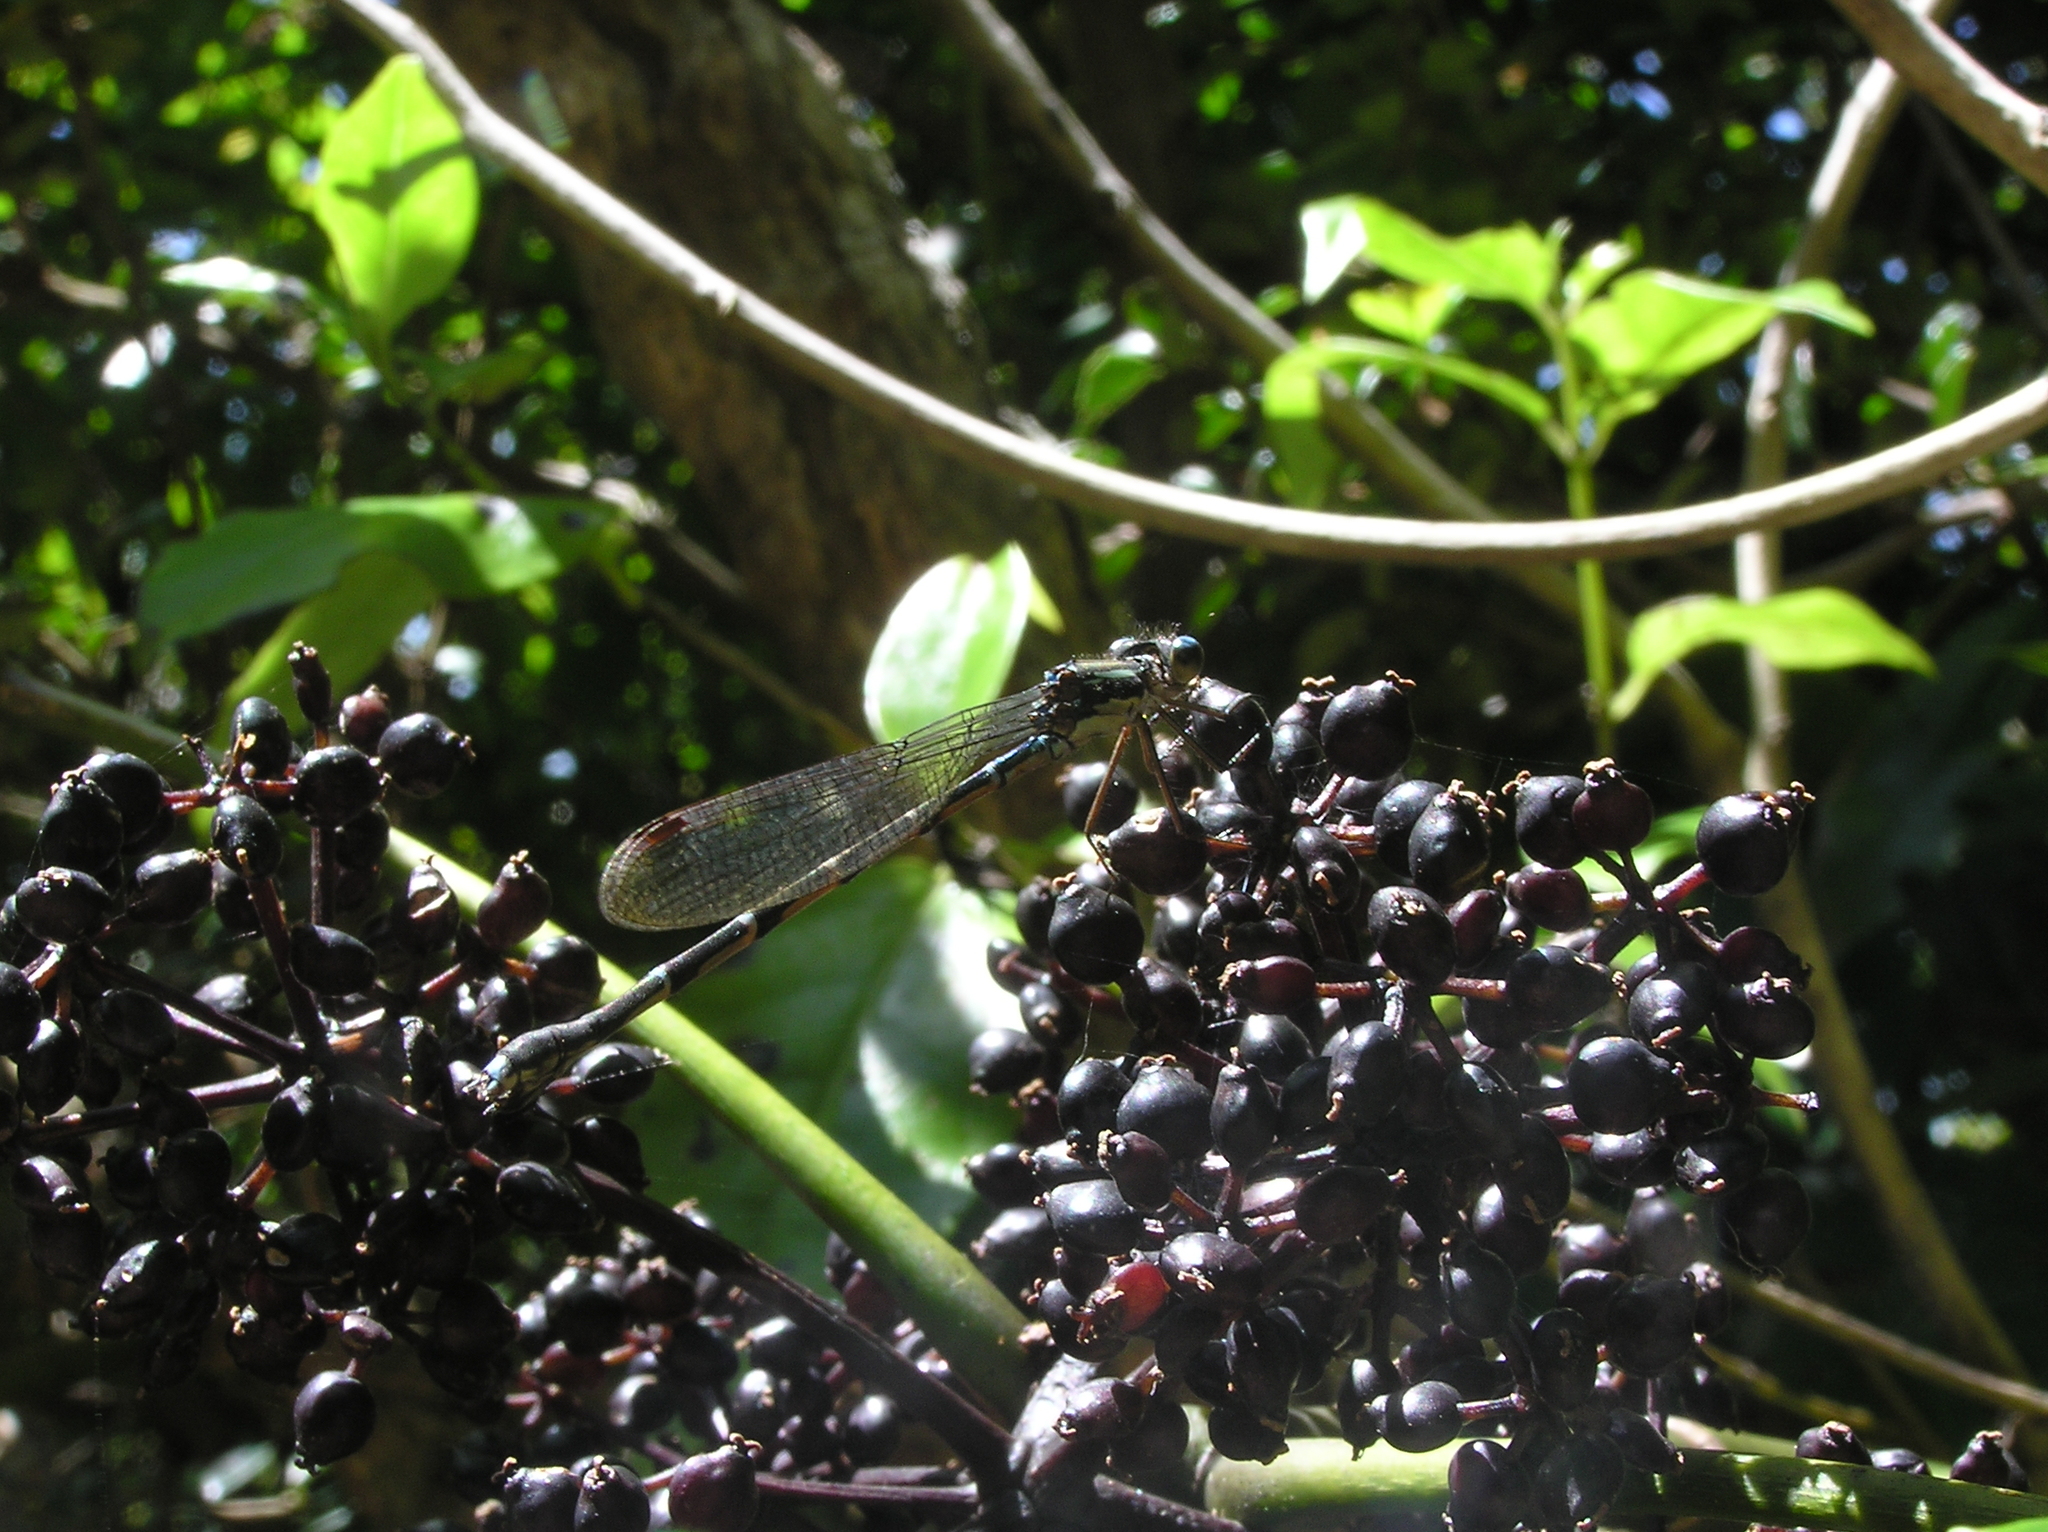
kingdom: Animalia
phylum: Arthropoda
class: Insecta
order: Odonata
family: Lestidae
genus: Austrolestes
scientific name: Austrolestes colensonis
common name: Blue damselfly
